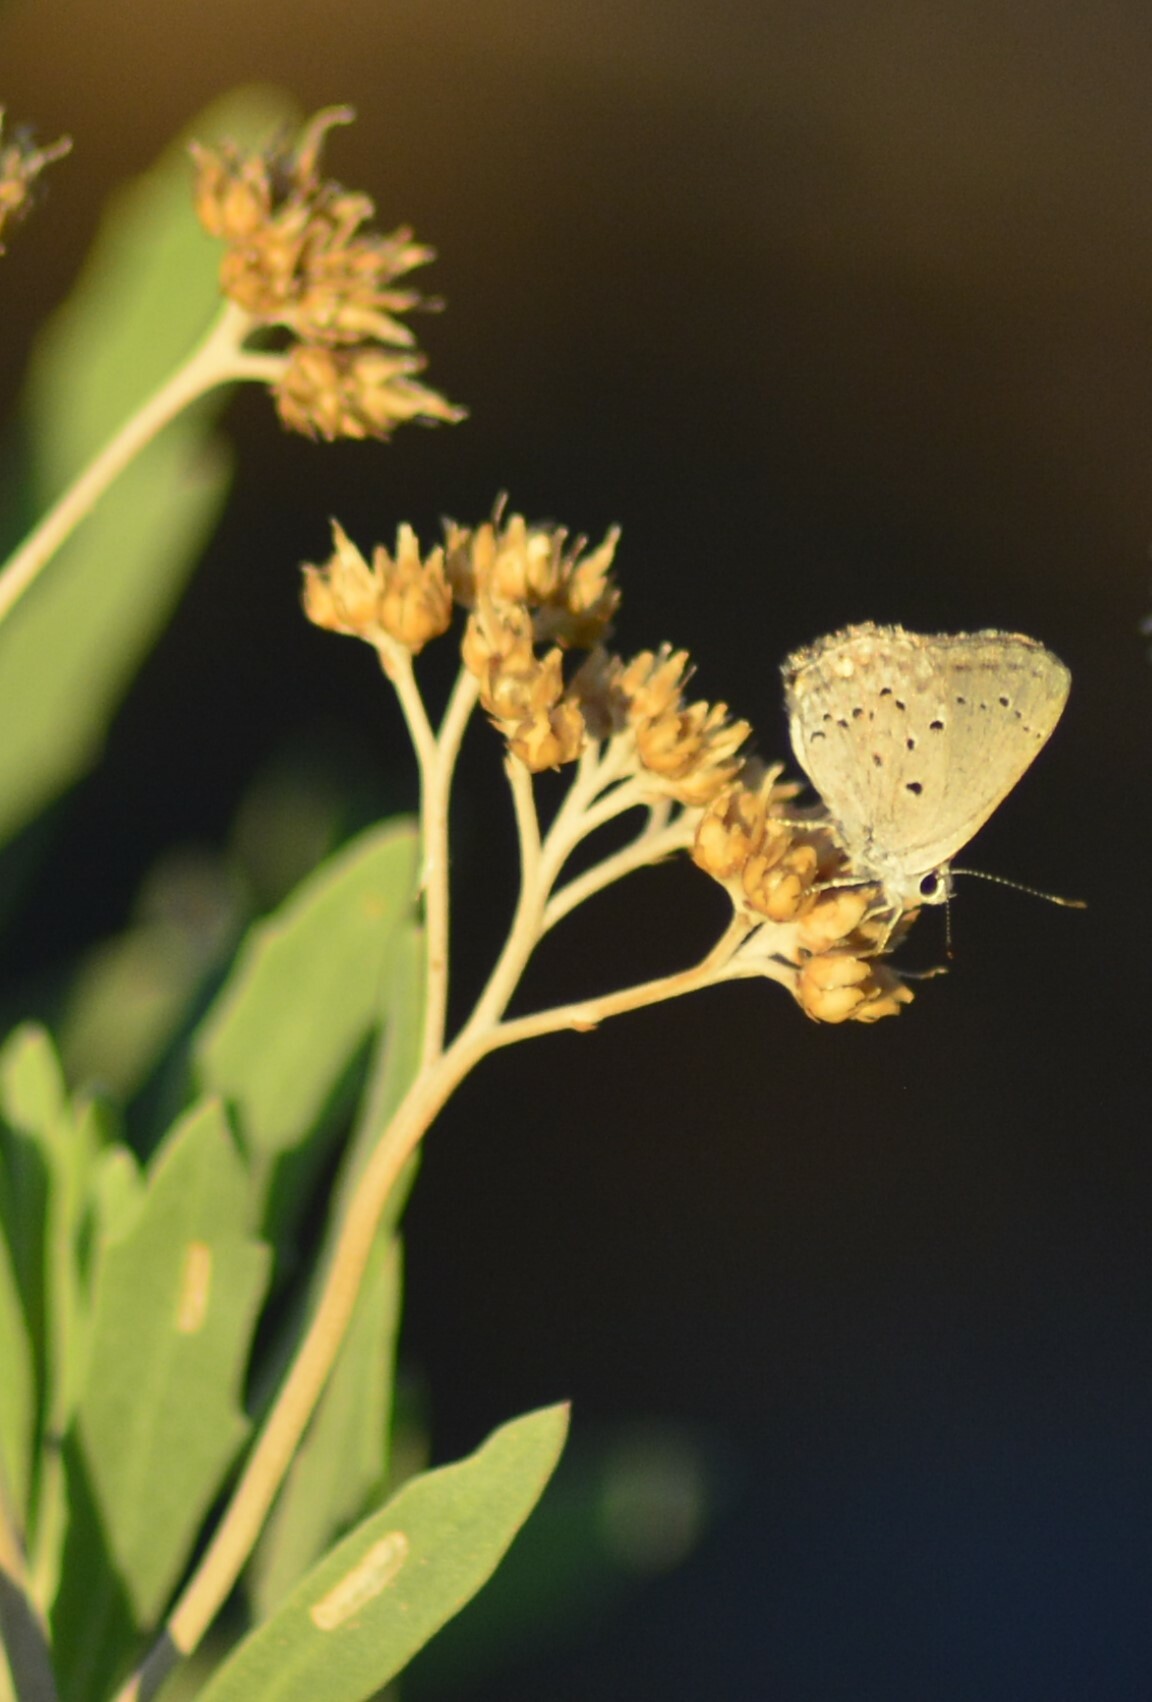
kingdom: Animalia
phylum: Arthropoda
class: Insecta
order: Lepidoptera
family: Lycaenidae
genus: Strymon
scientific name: Strymon eurytulus
